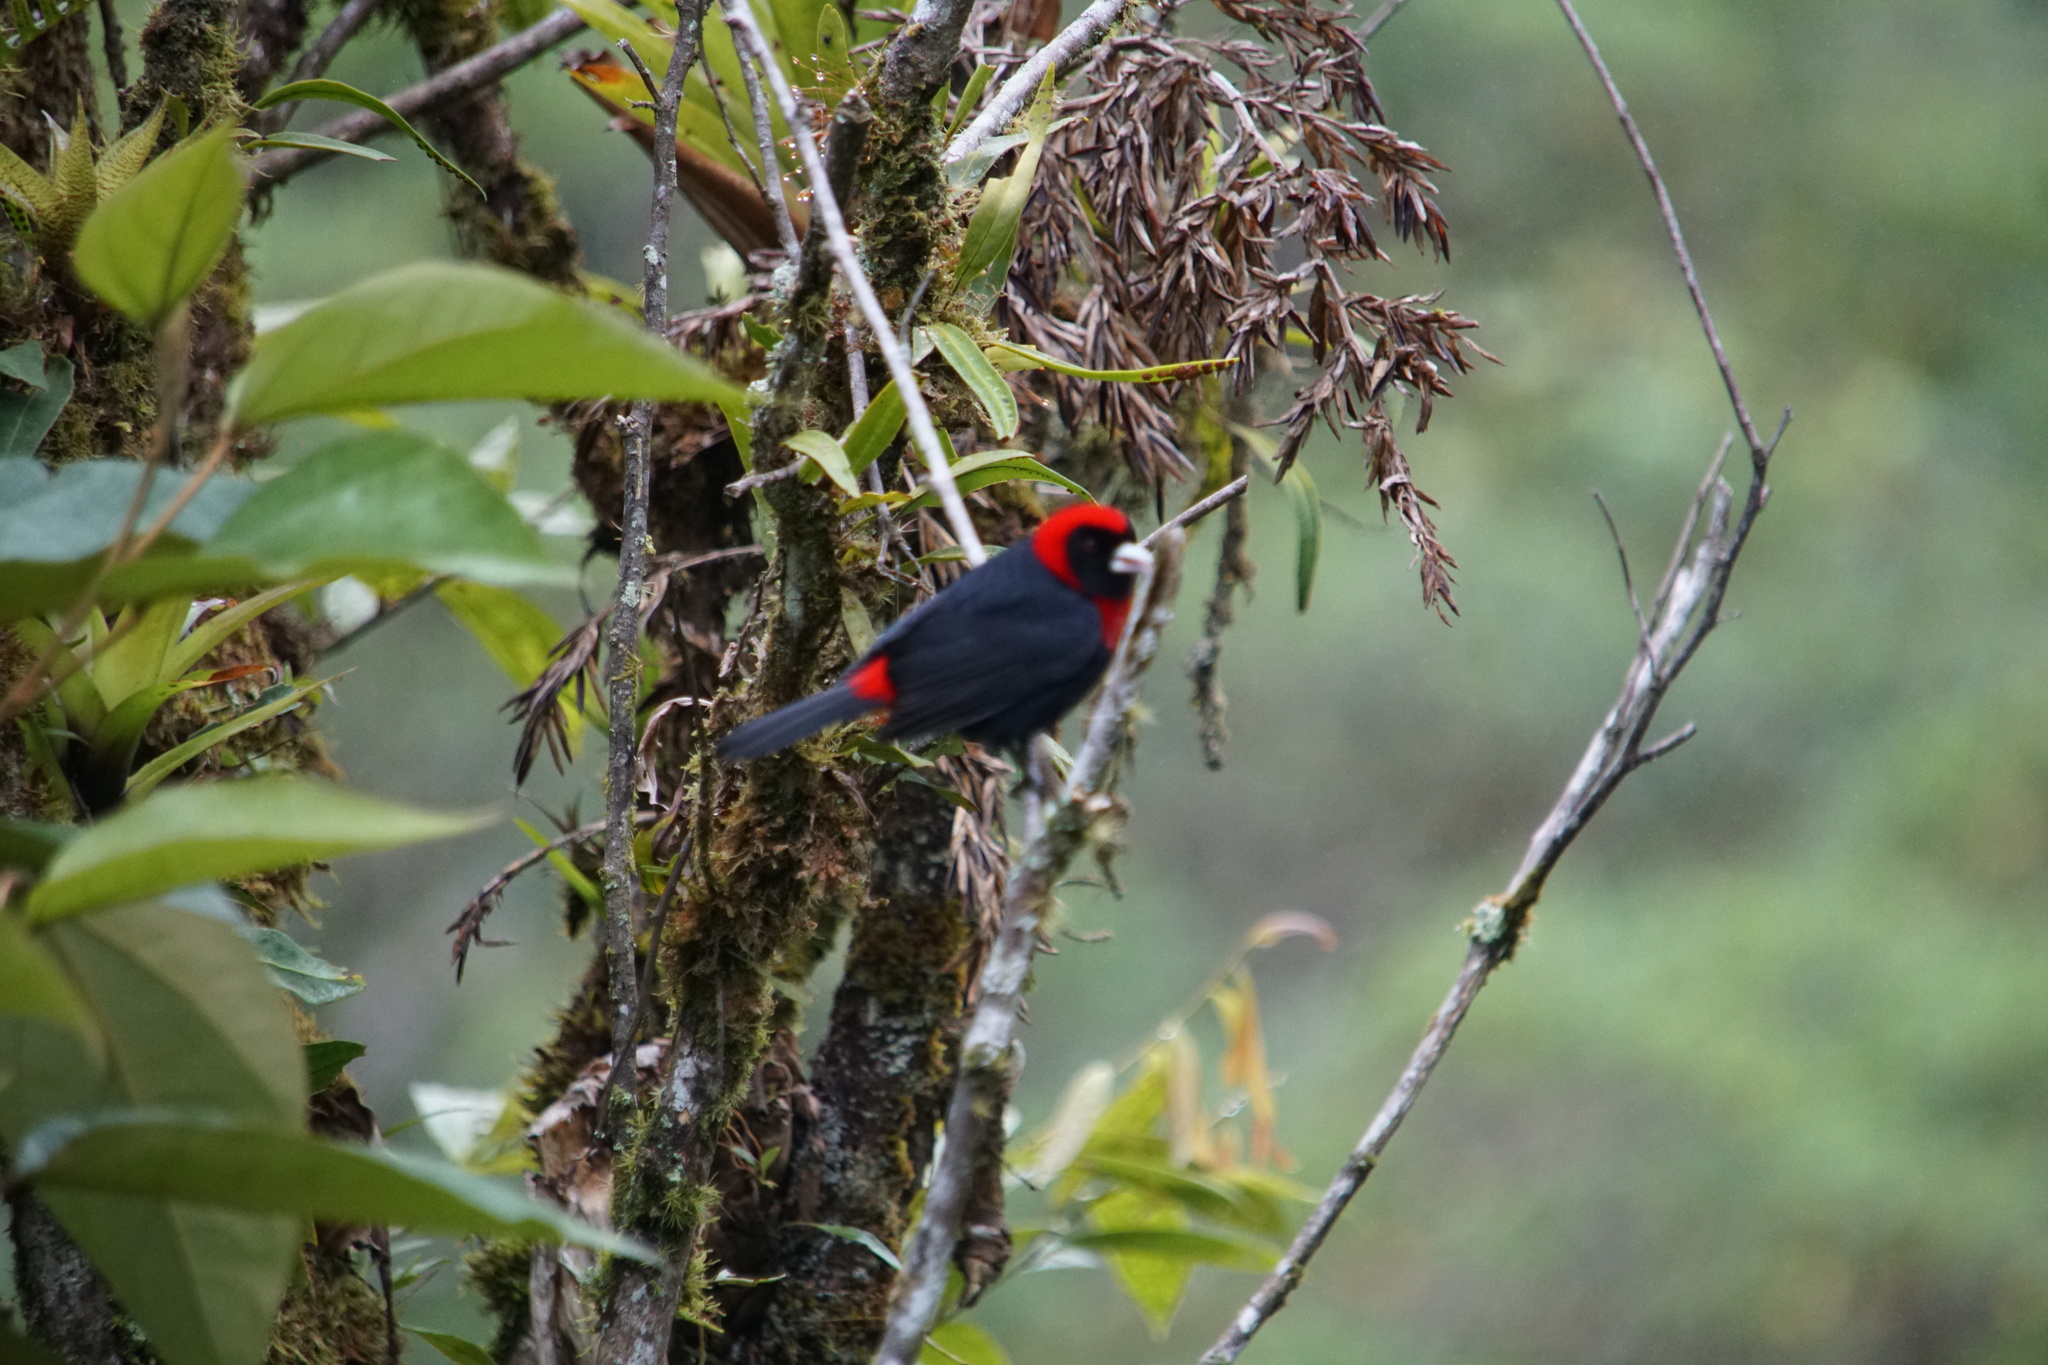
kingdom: Animalia
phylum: Chordata
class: Aves
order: Passeriformes
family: Thraupidae
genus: Ramphocelus
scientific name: Ramphocelus sanguinolentus
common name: Crimson-collared tanager
